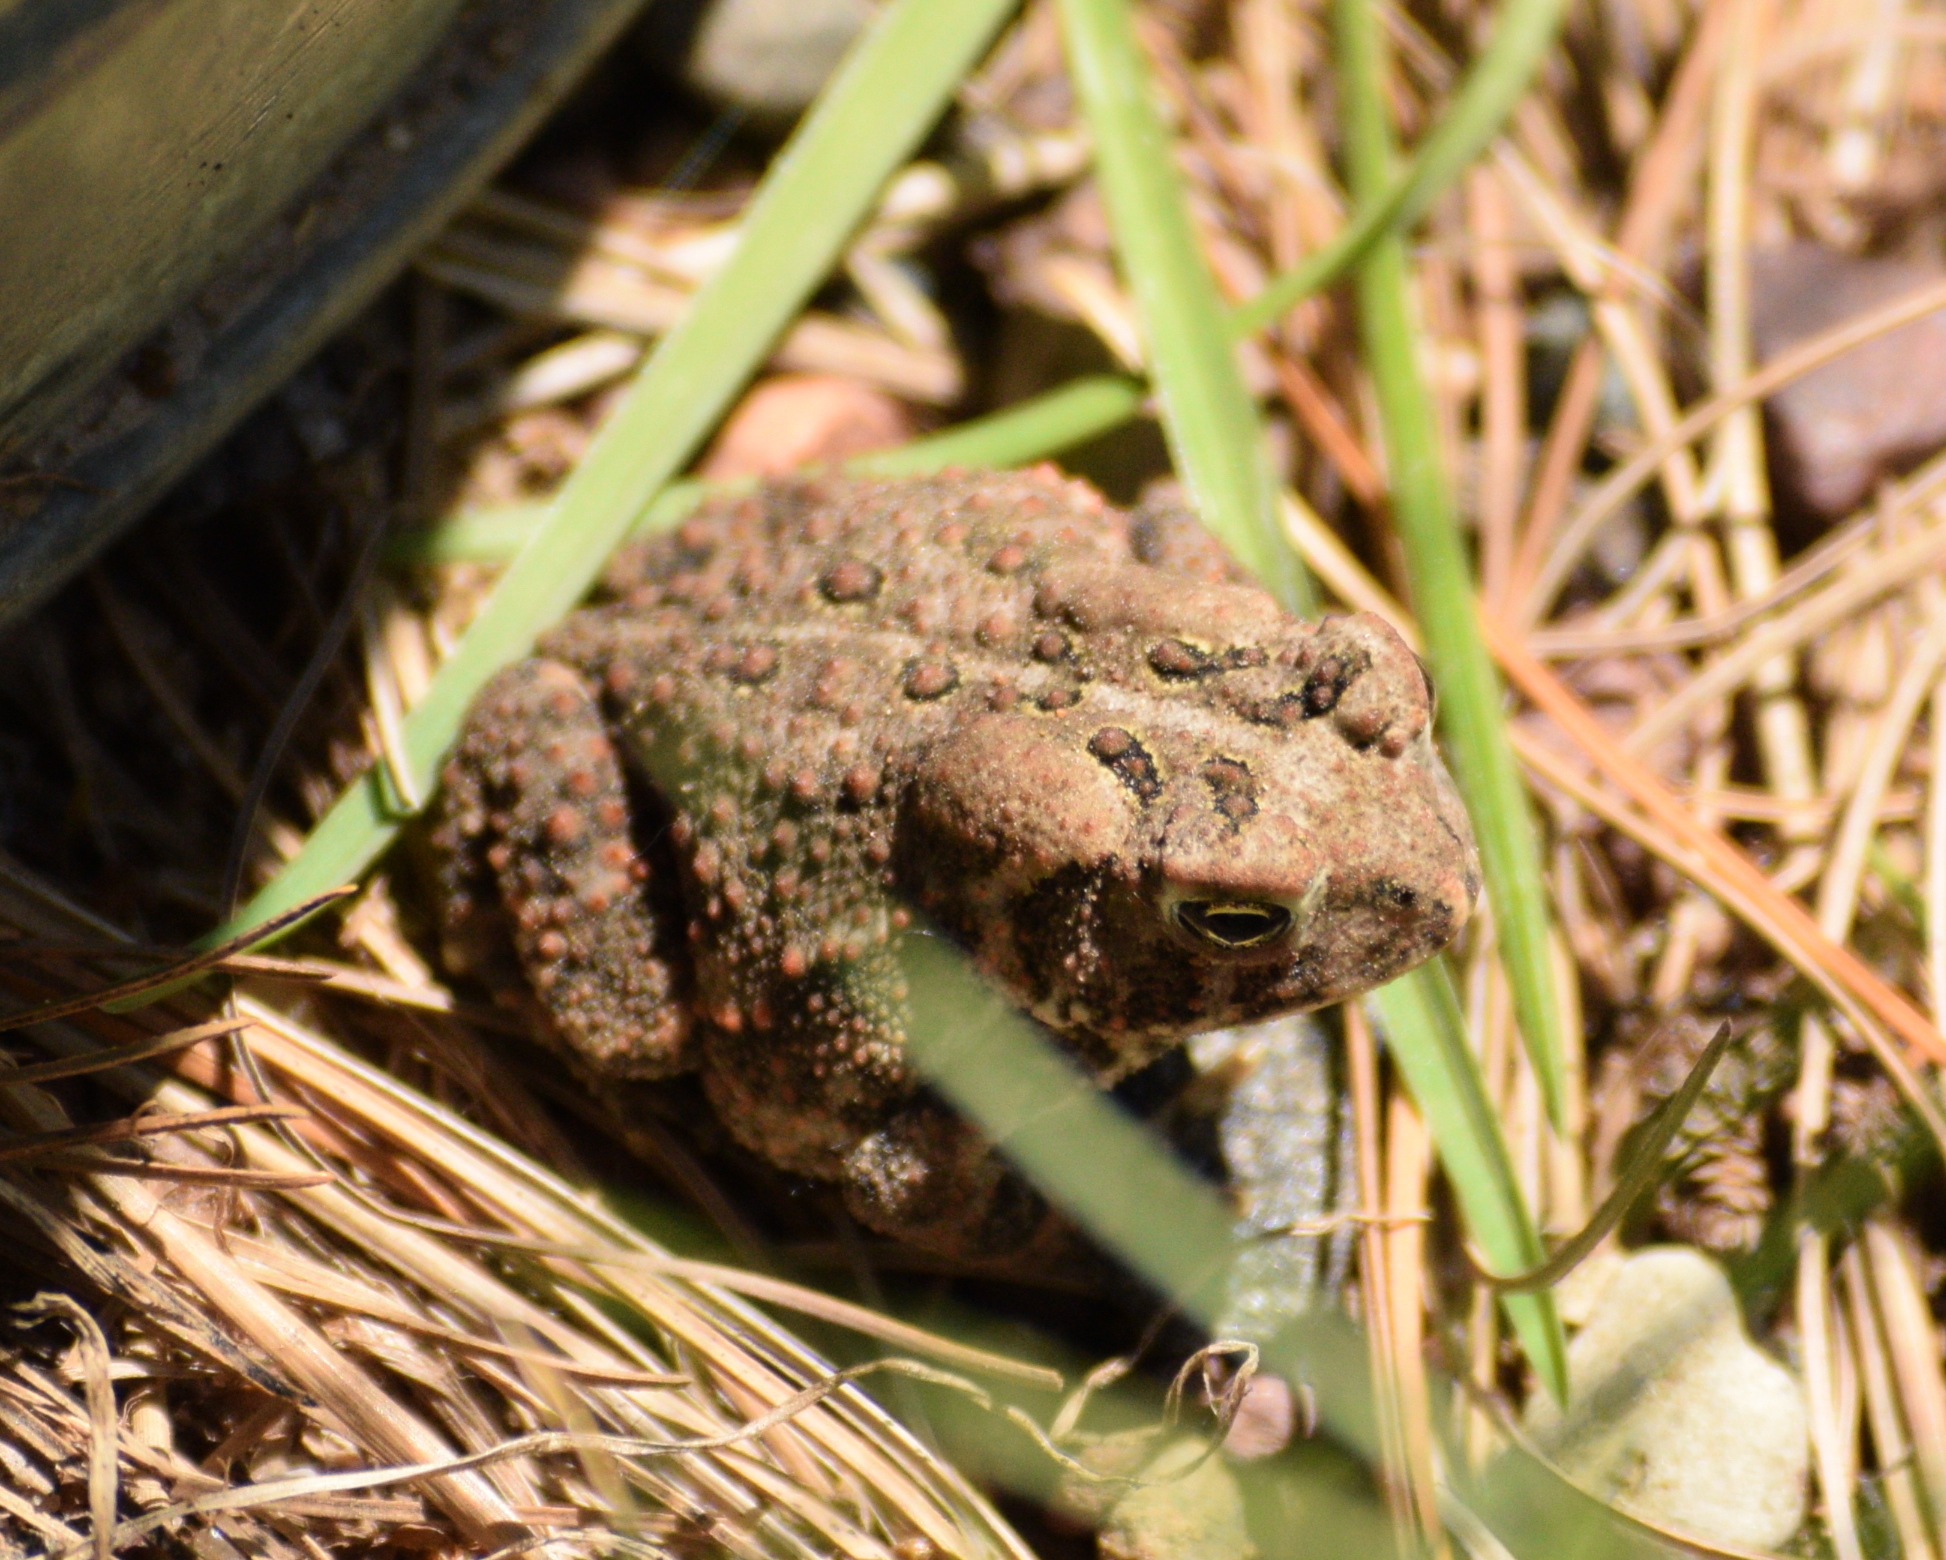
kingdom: Animalia
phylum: Chordata
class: Amphibia
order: Anura
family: Bufonidae
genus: Anaxyrus
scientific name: Anaxyrus americanus
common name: American toad
